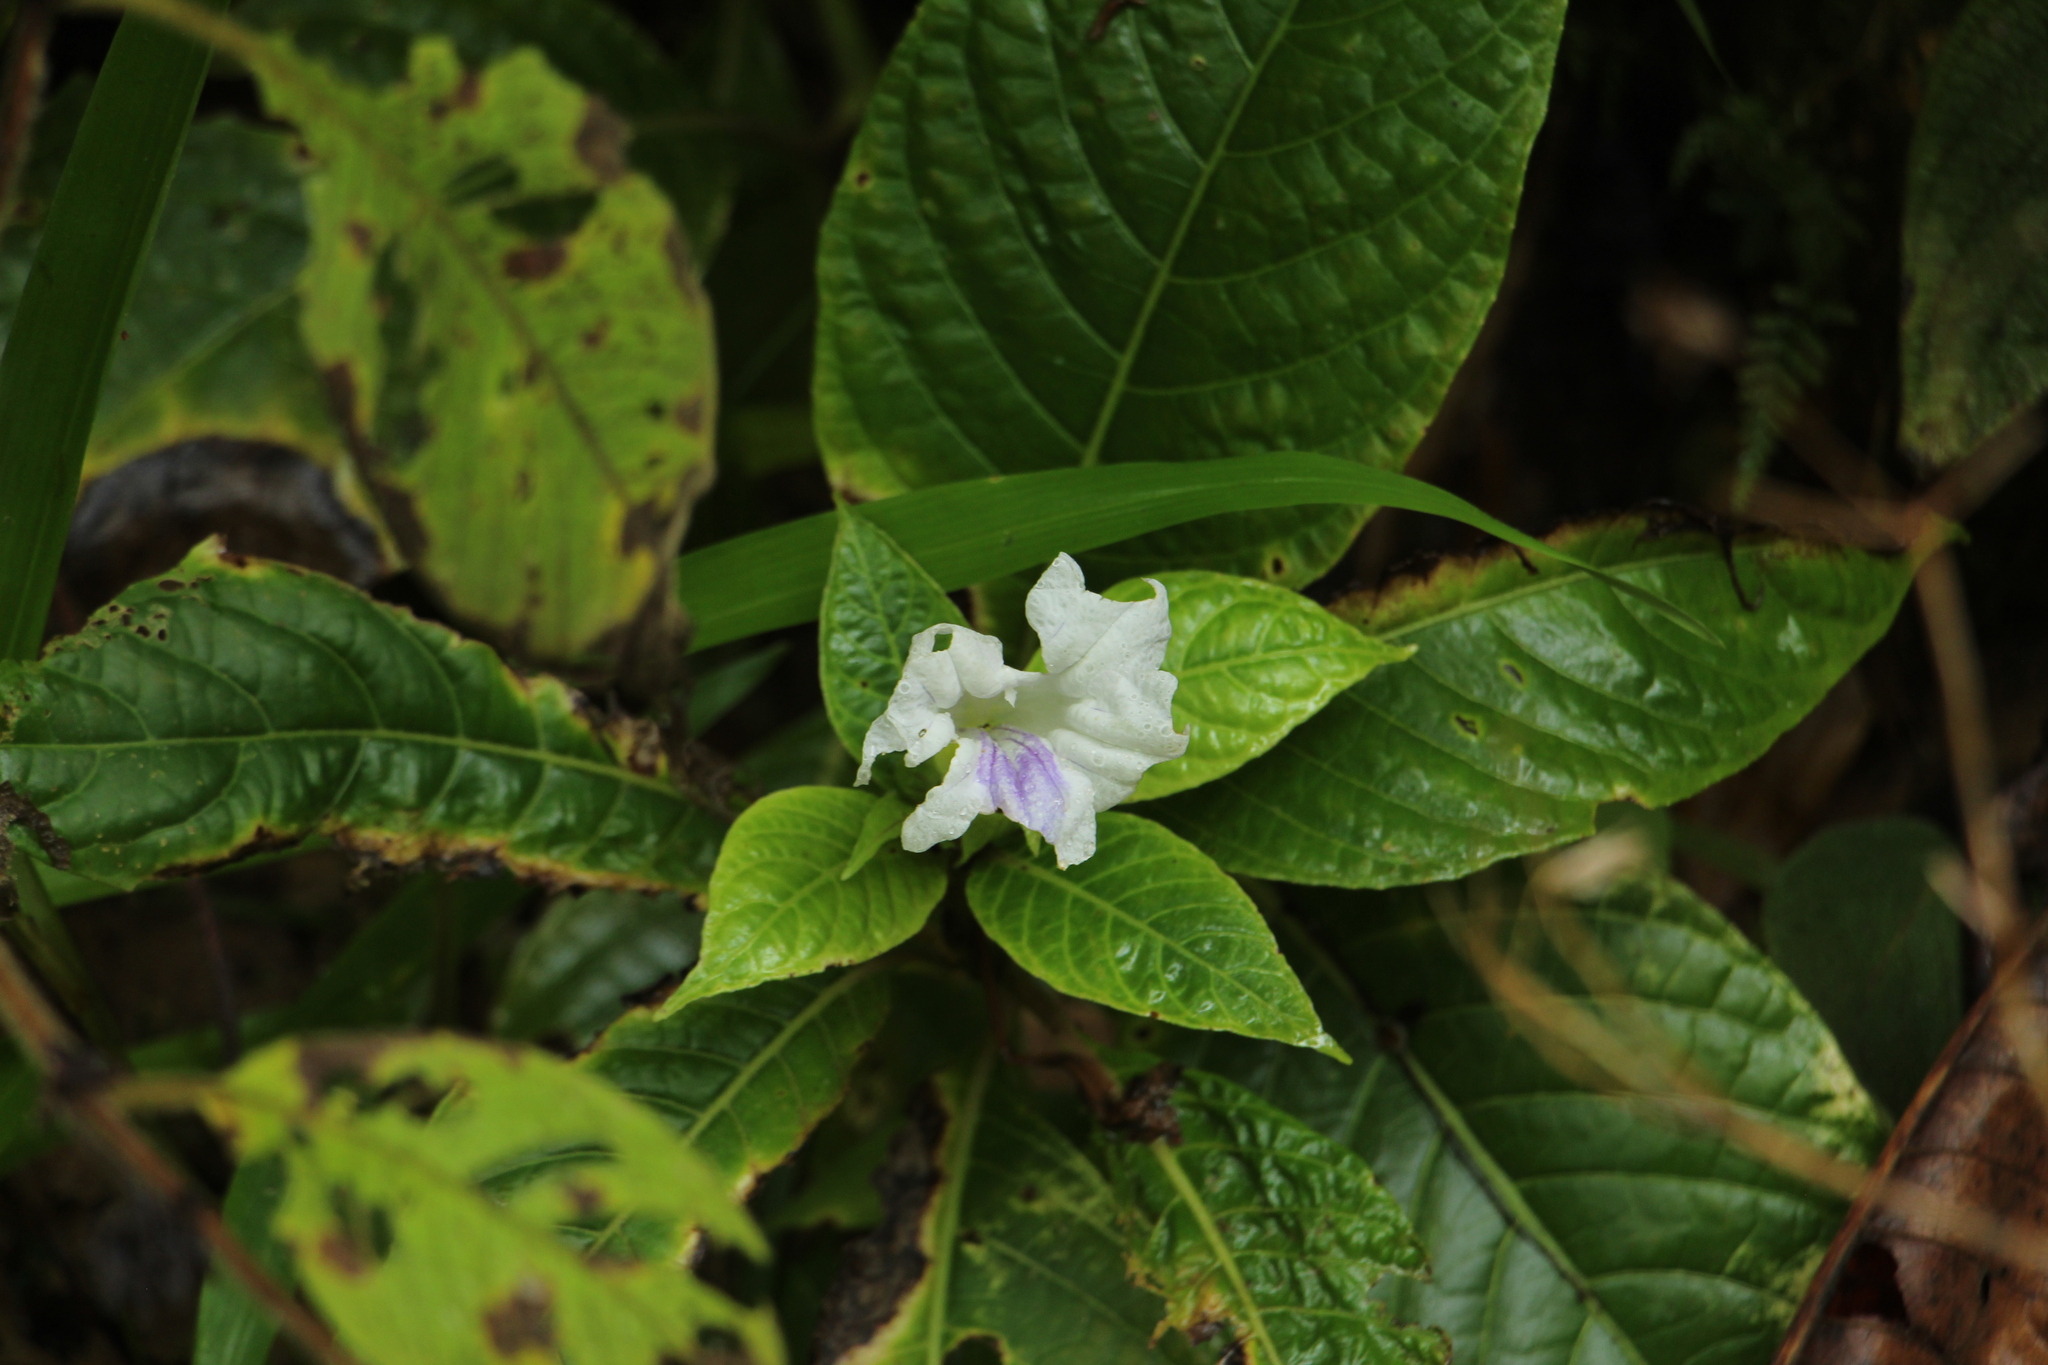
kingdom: Plantae
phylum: Tracheophyta
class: Magnoliopsida
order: Lamiales
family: Acanthaceae
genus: Ruellia
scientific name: Ruellia tubiflora
